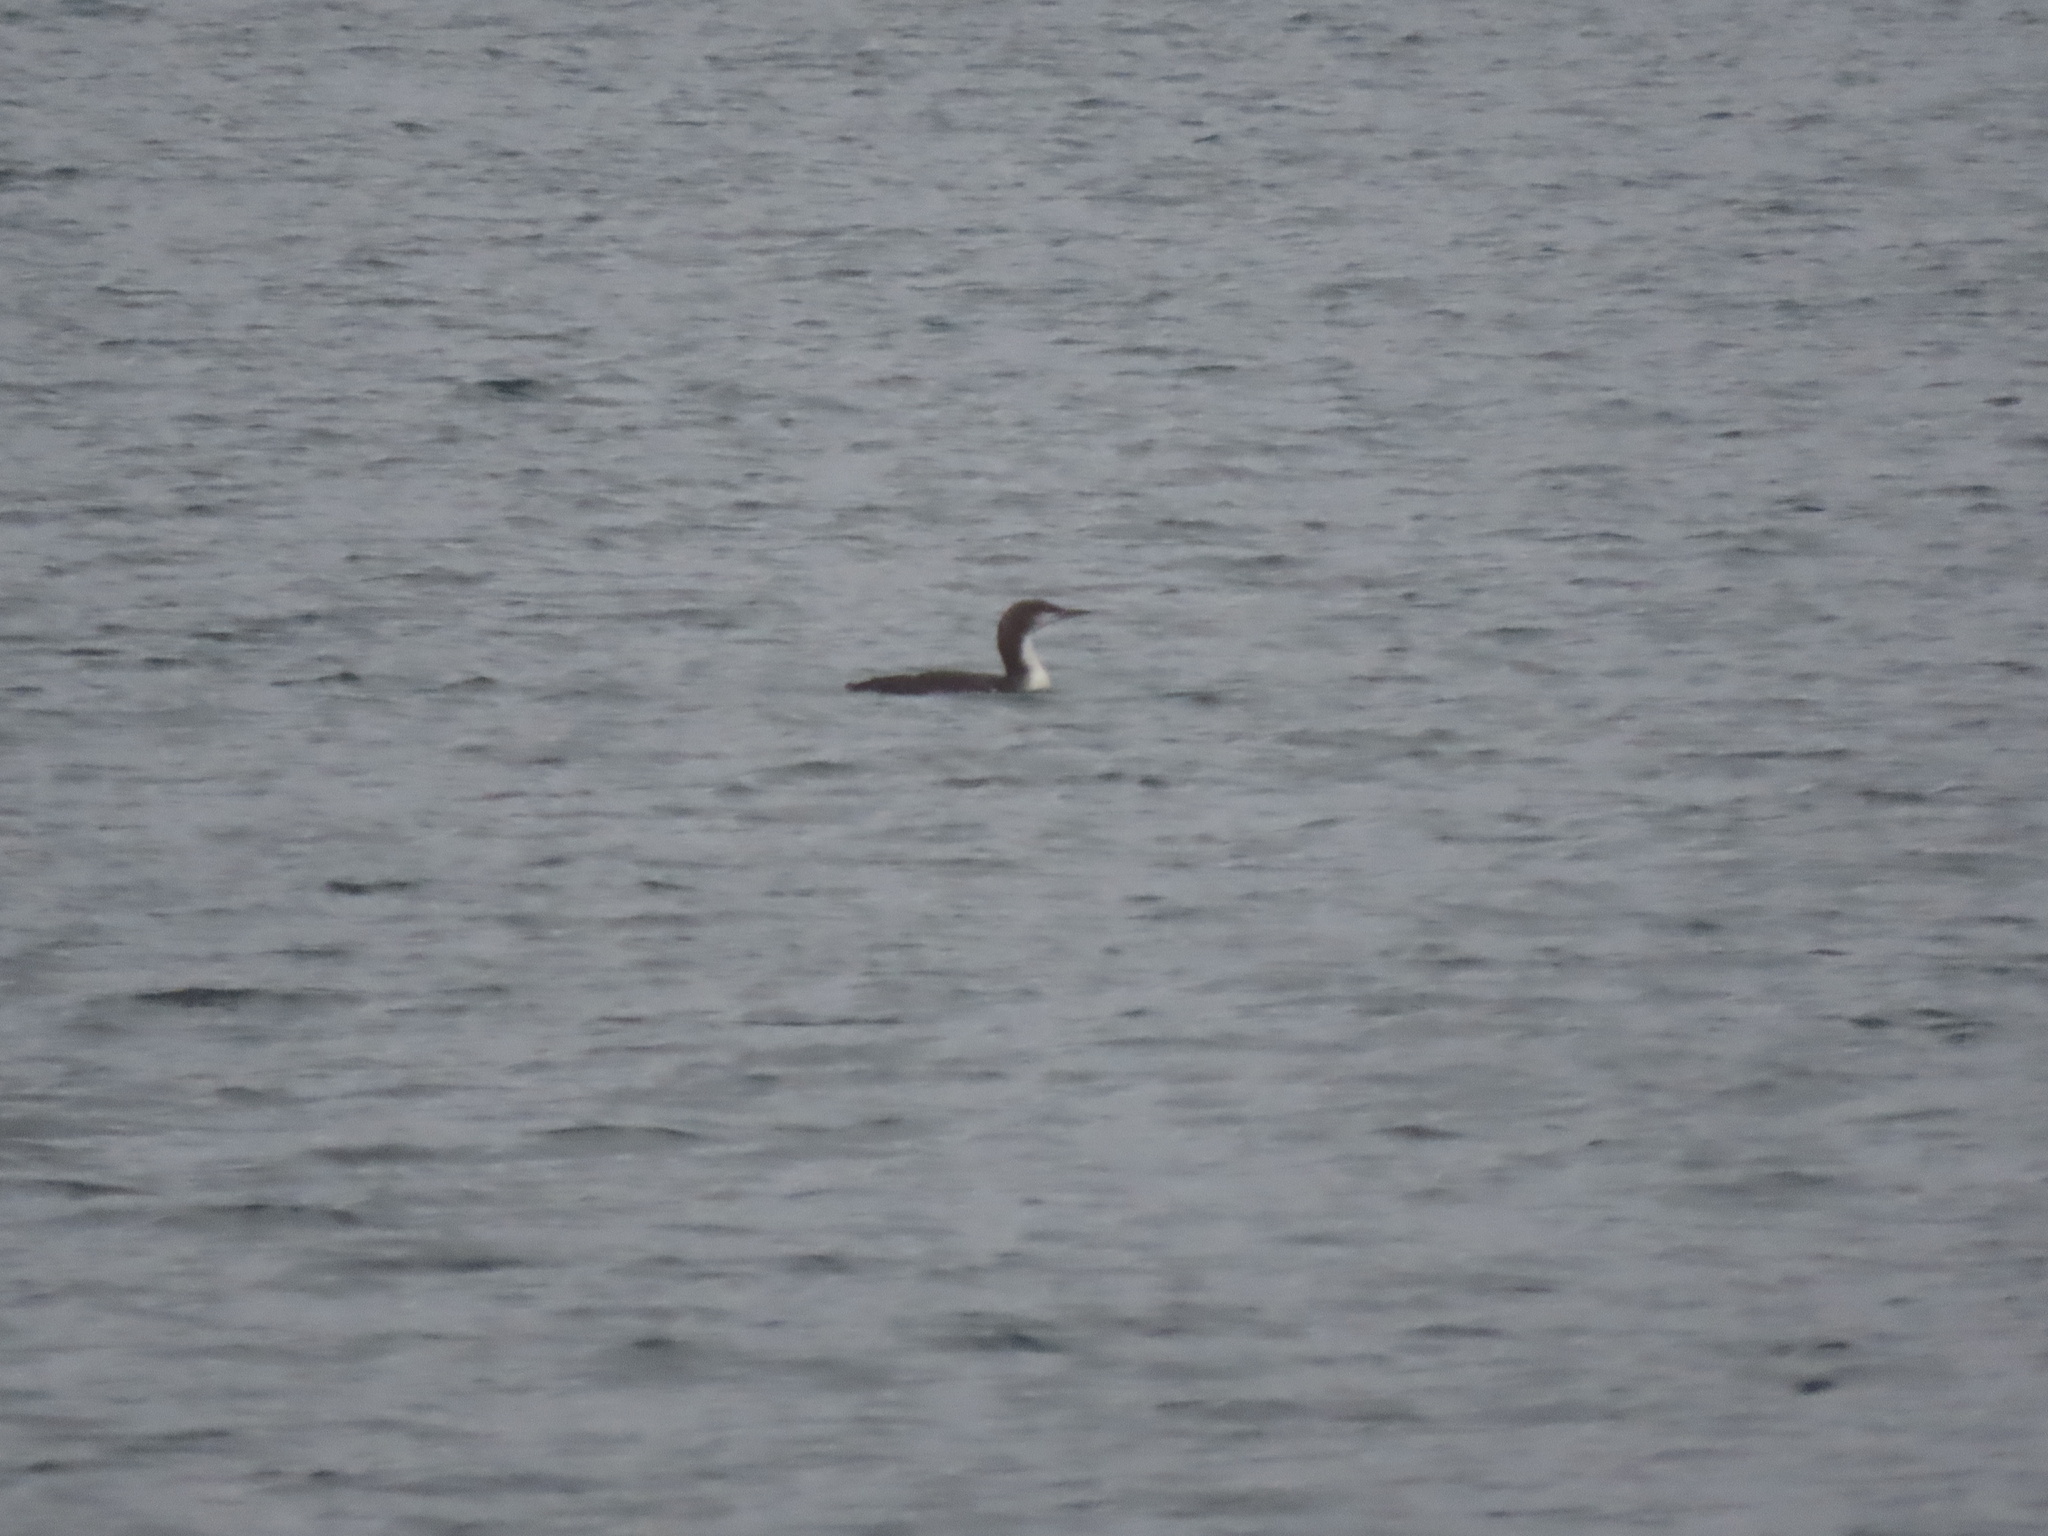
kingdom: Animalia
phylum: Chordata
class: Aves
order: Gaviiformes
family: Gaviidae
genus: Gavia
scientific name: Gavia pacifica
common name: Pacific loon
